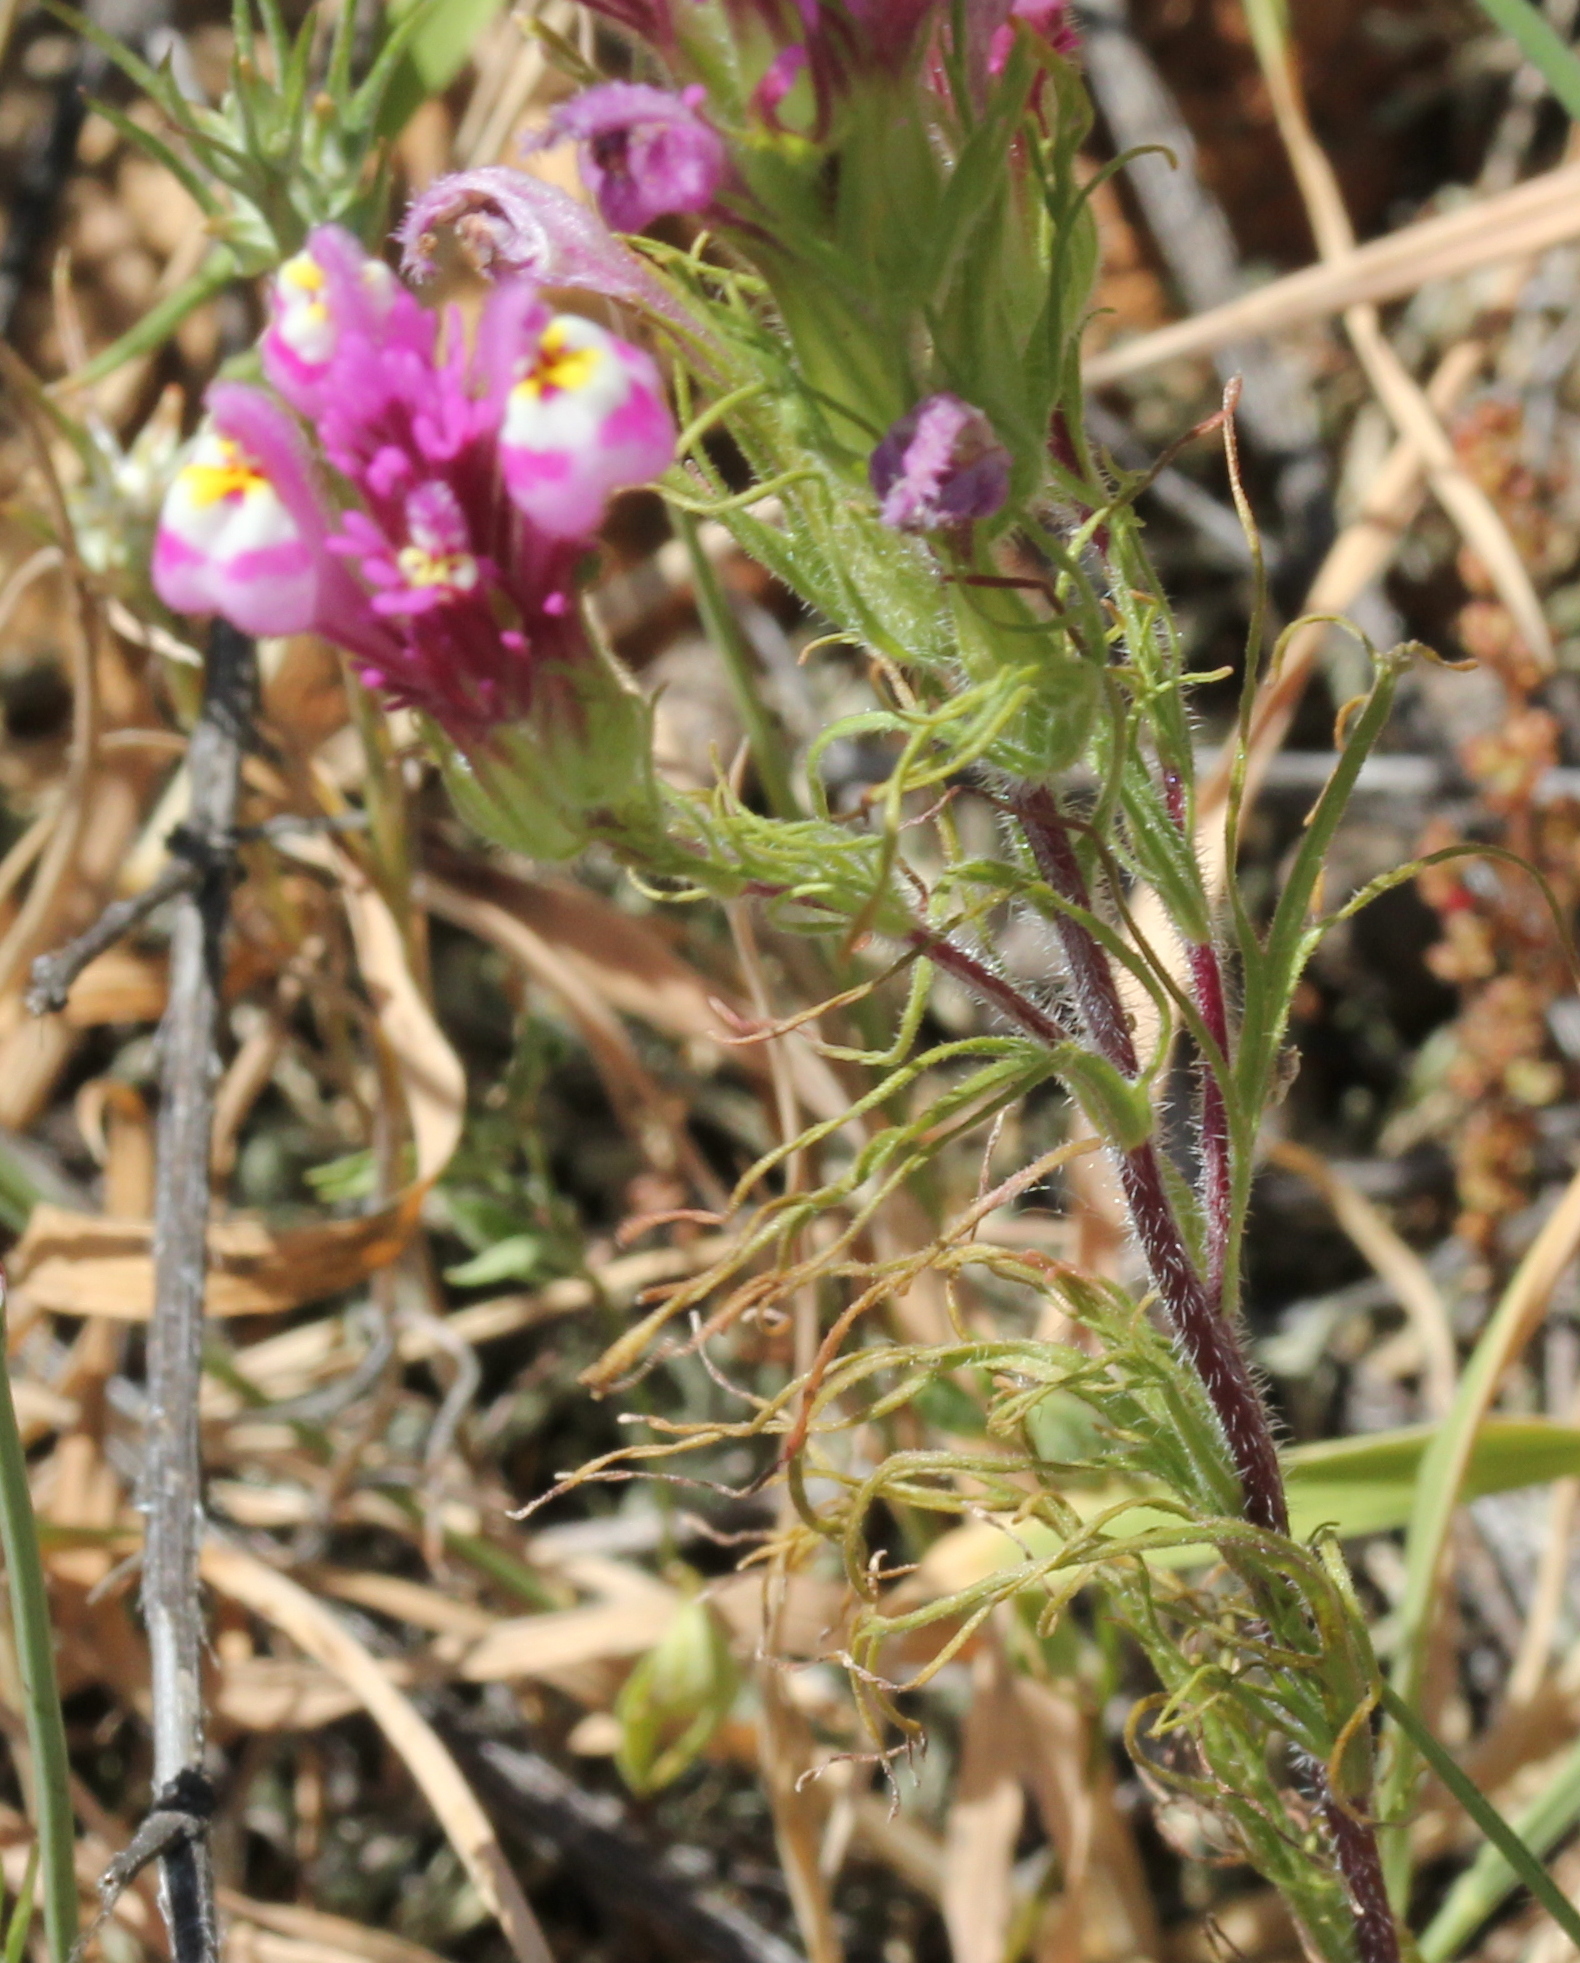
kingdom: Plantae
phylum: Tracheophyta
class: Magnoliopsida
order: Lamiales
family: Orobanchaceae
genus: Castilleja
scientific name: Castilleja exserta
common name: Purple owl-clover
